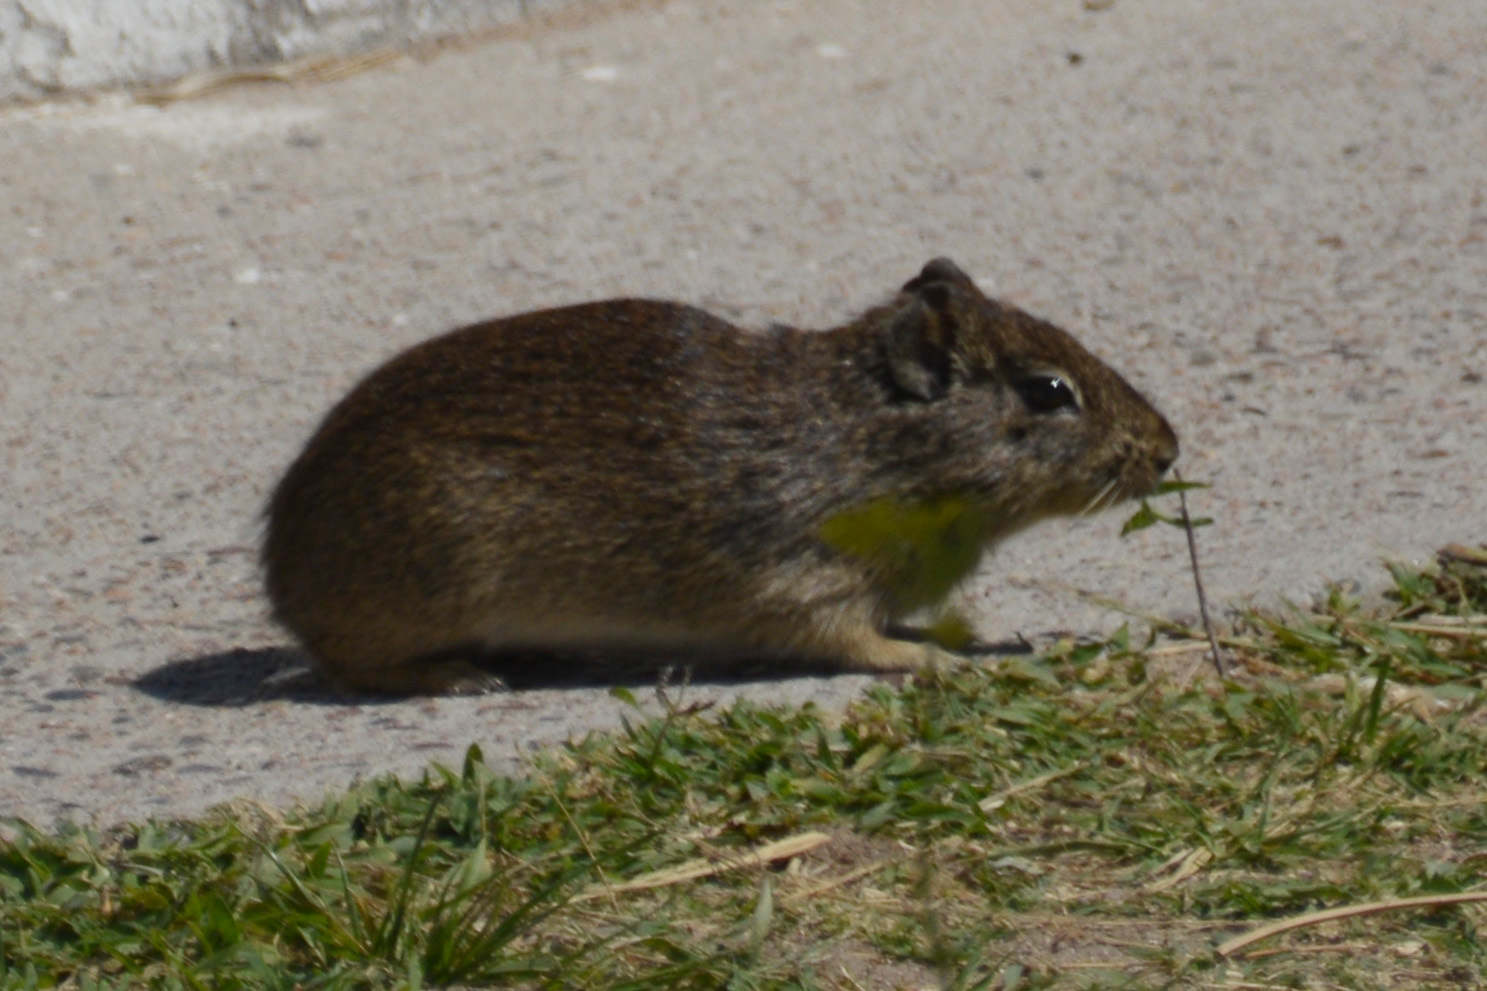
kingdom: Animalia
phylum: Chordata
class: Mammalia
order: Rodentia
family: Caviidae
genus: Galea
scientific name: Galea musteloides
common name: Common yellow-toothed cavy
